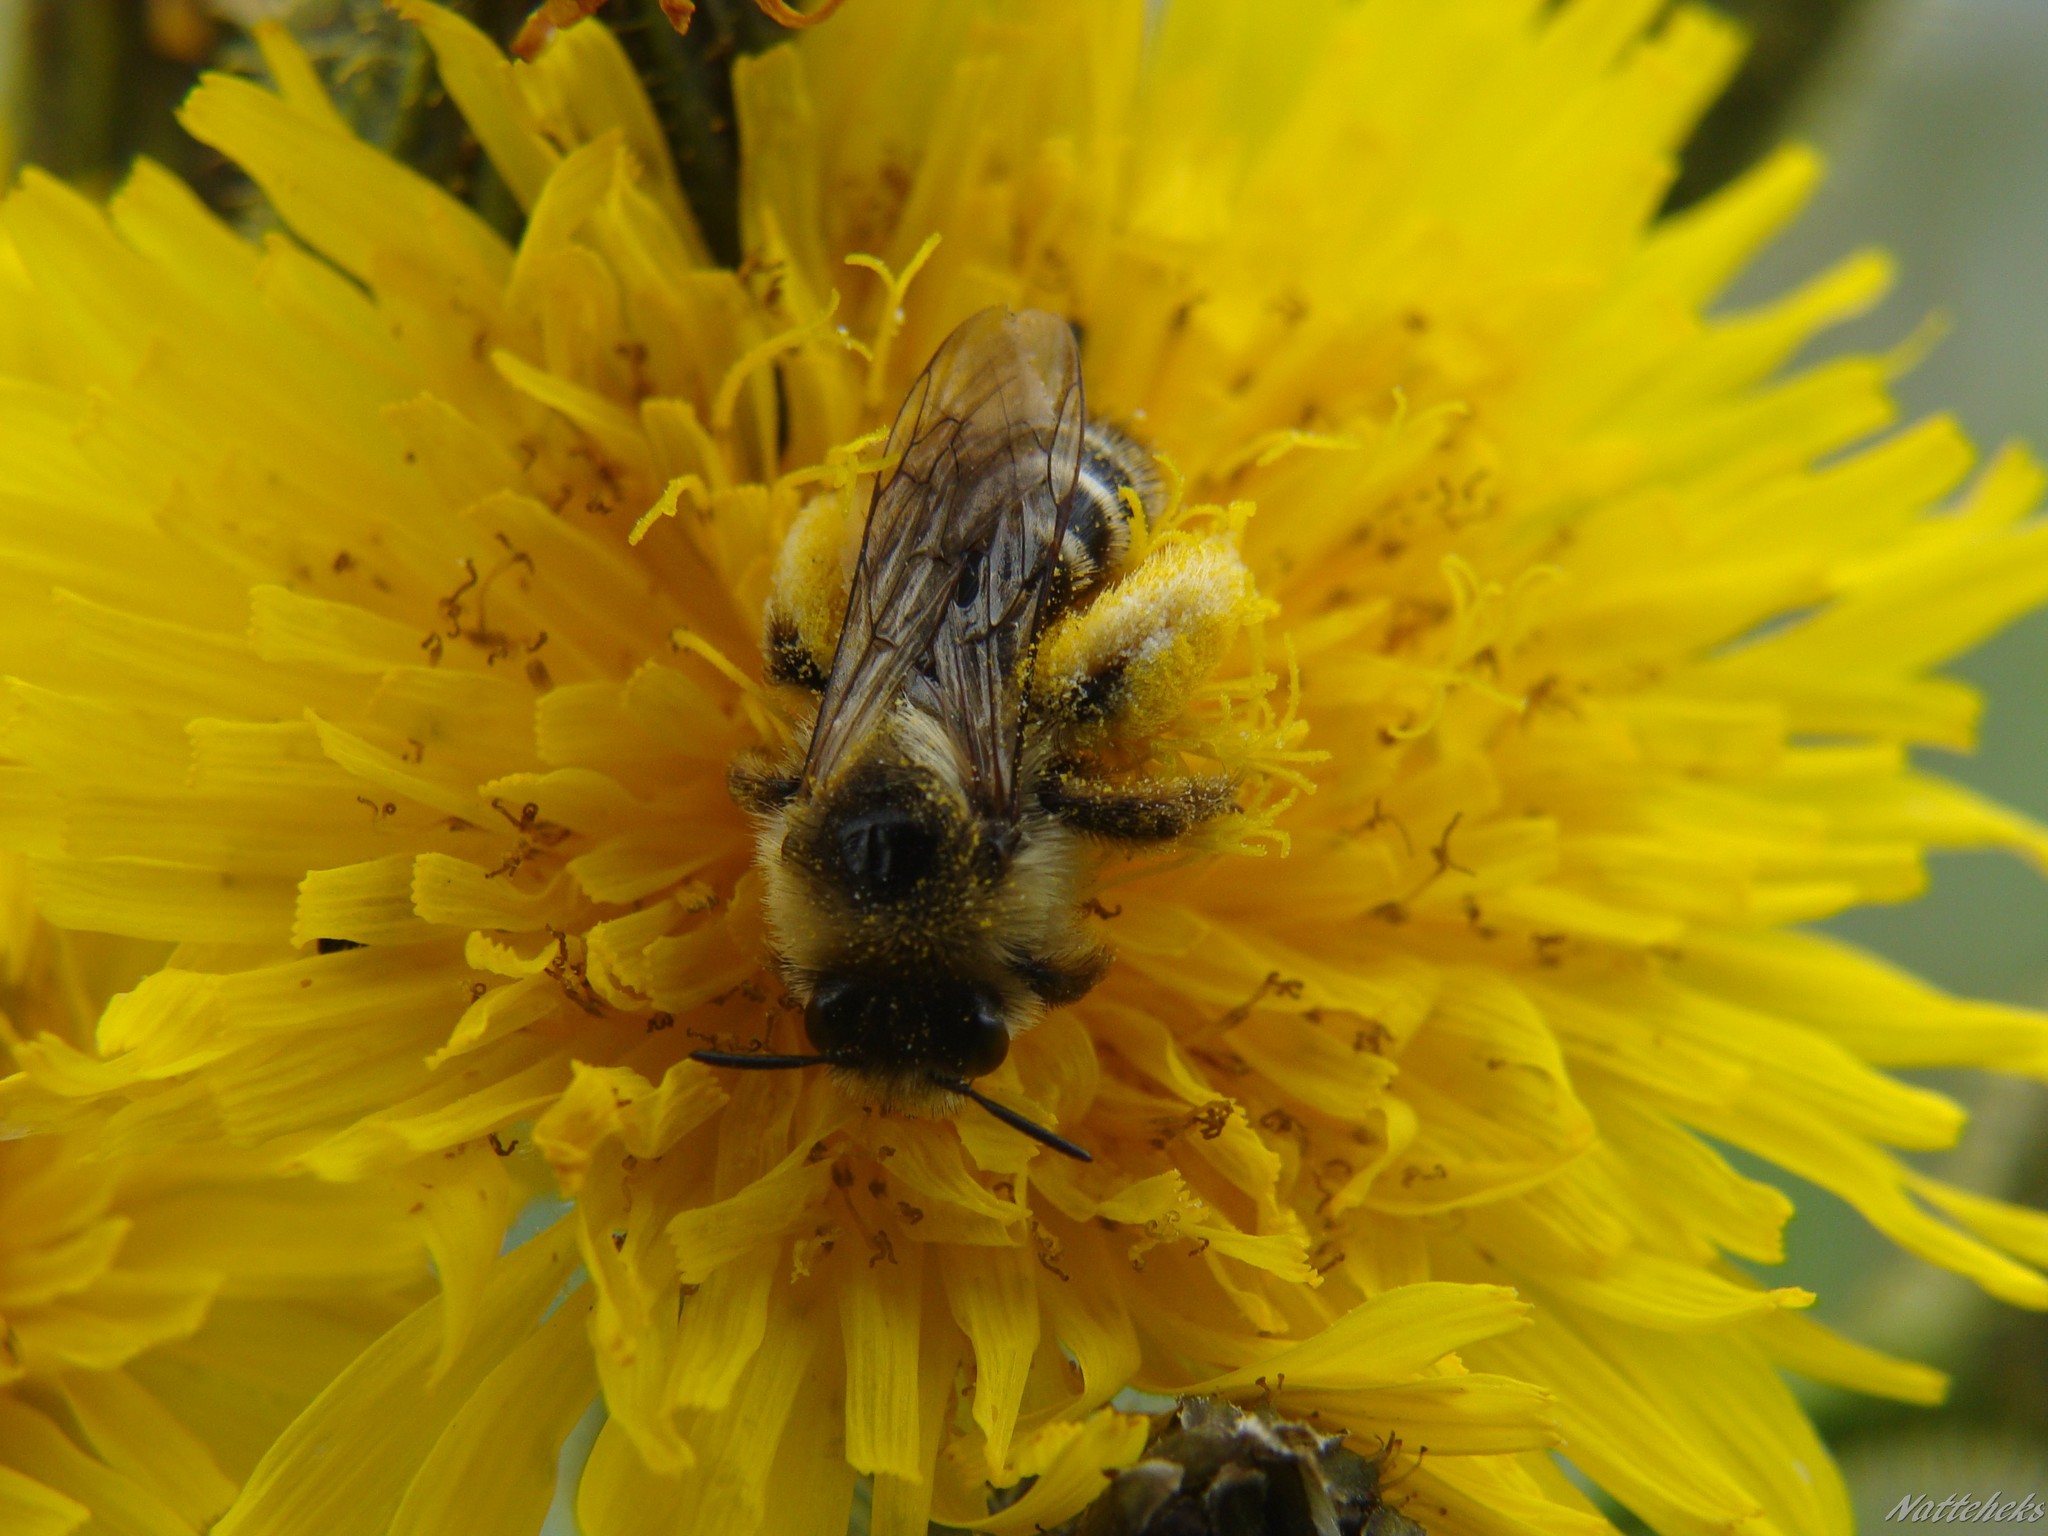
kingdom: Animalia
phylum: Arthropoda
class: Insecta
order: Hymenoptera
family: Melittidae
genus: Dasypoda
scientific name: Dasypoda hirtipes
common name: Pantaloon bee
